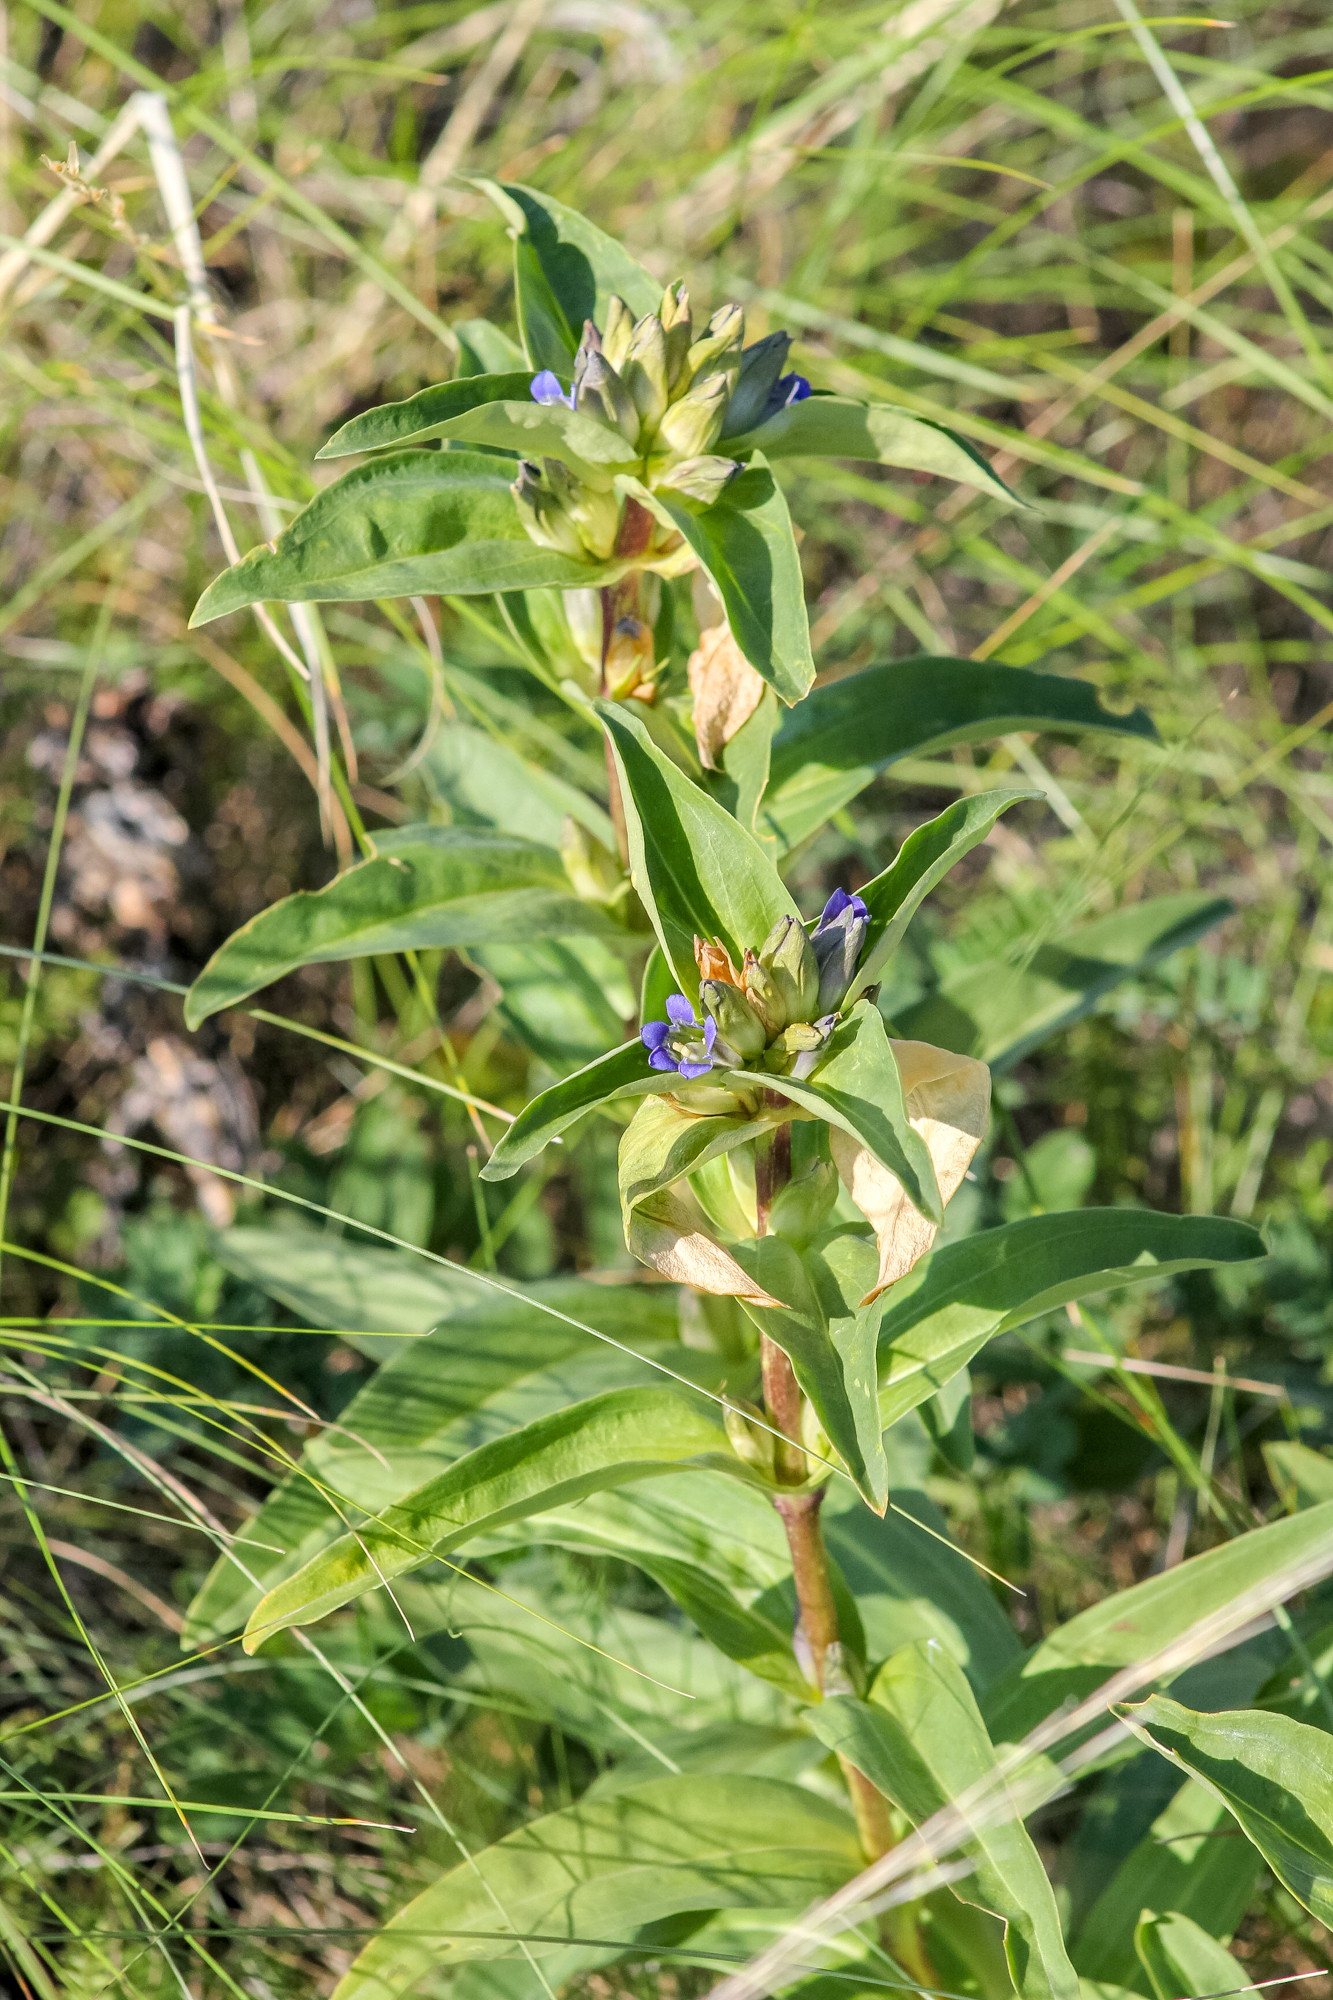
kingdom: Plantae
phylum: Tracheophyta
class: Magnoliopsida
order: Gentianales
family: Gentianaceae
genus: Gentiana
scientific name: Gentiana cruciata
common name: Cross gentian
